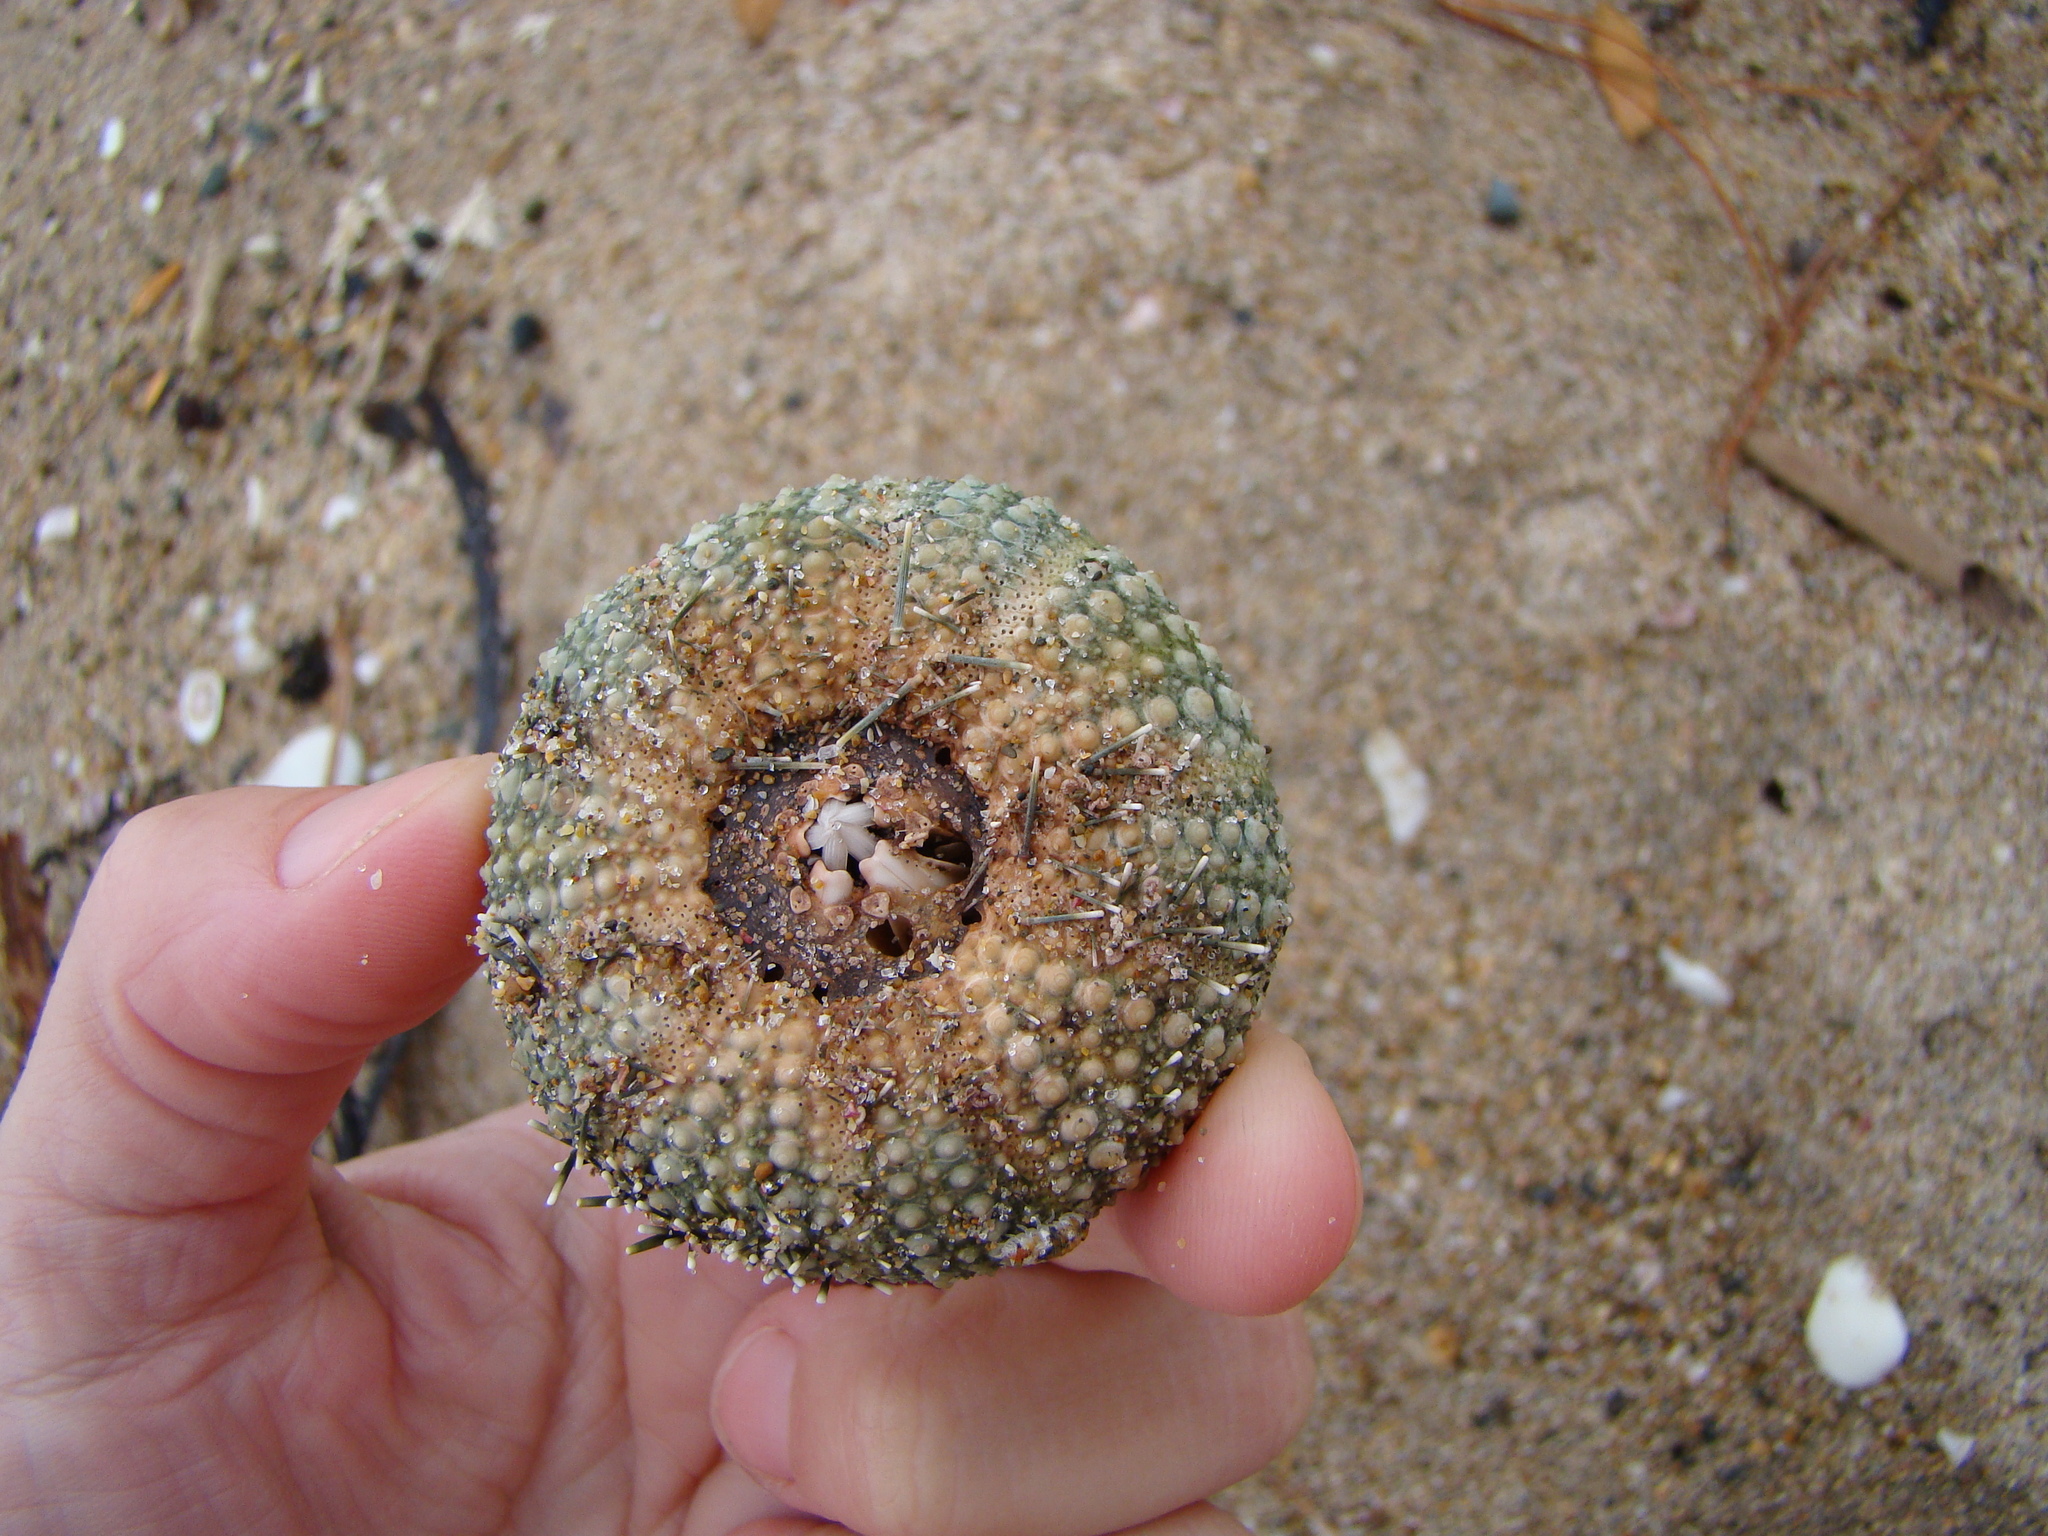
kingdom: Animalia
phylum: Echinodermata
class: Echinoidea
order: Camarodonta
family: Echinometridae
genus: Evechinus
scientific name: Evechinus chloroticus
